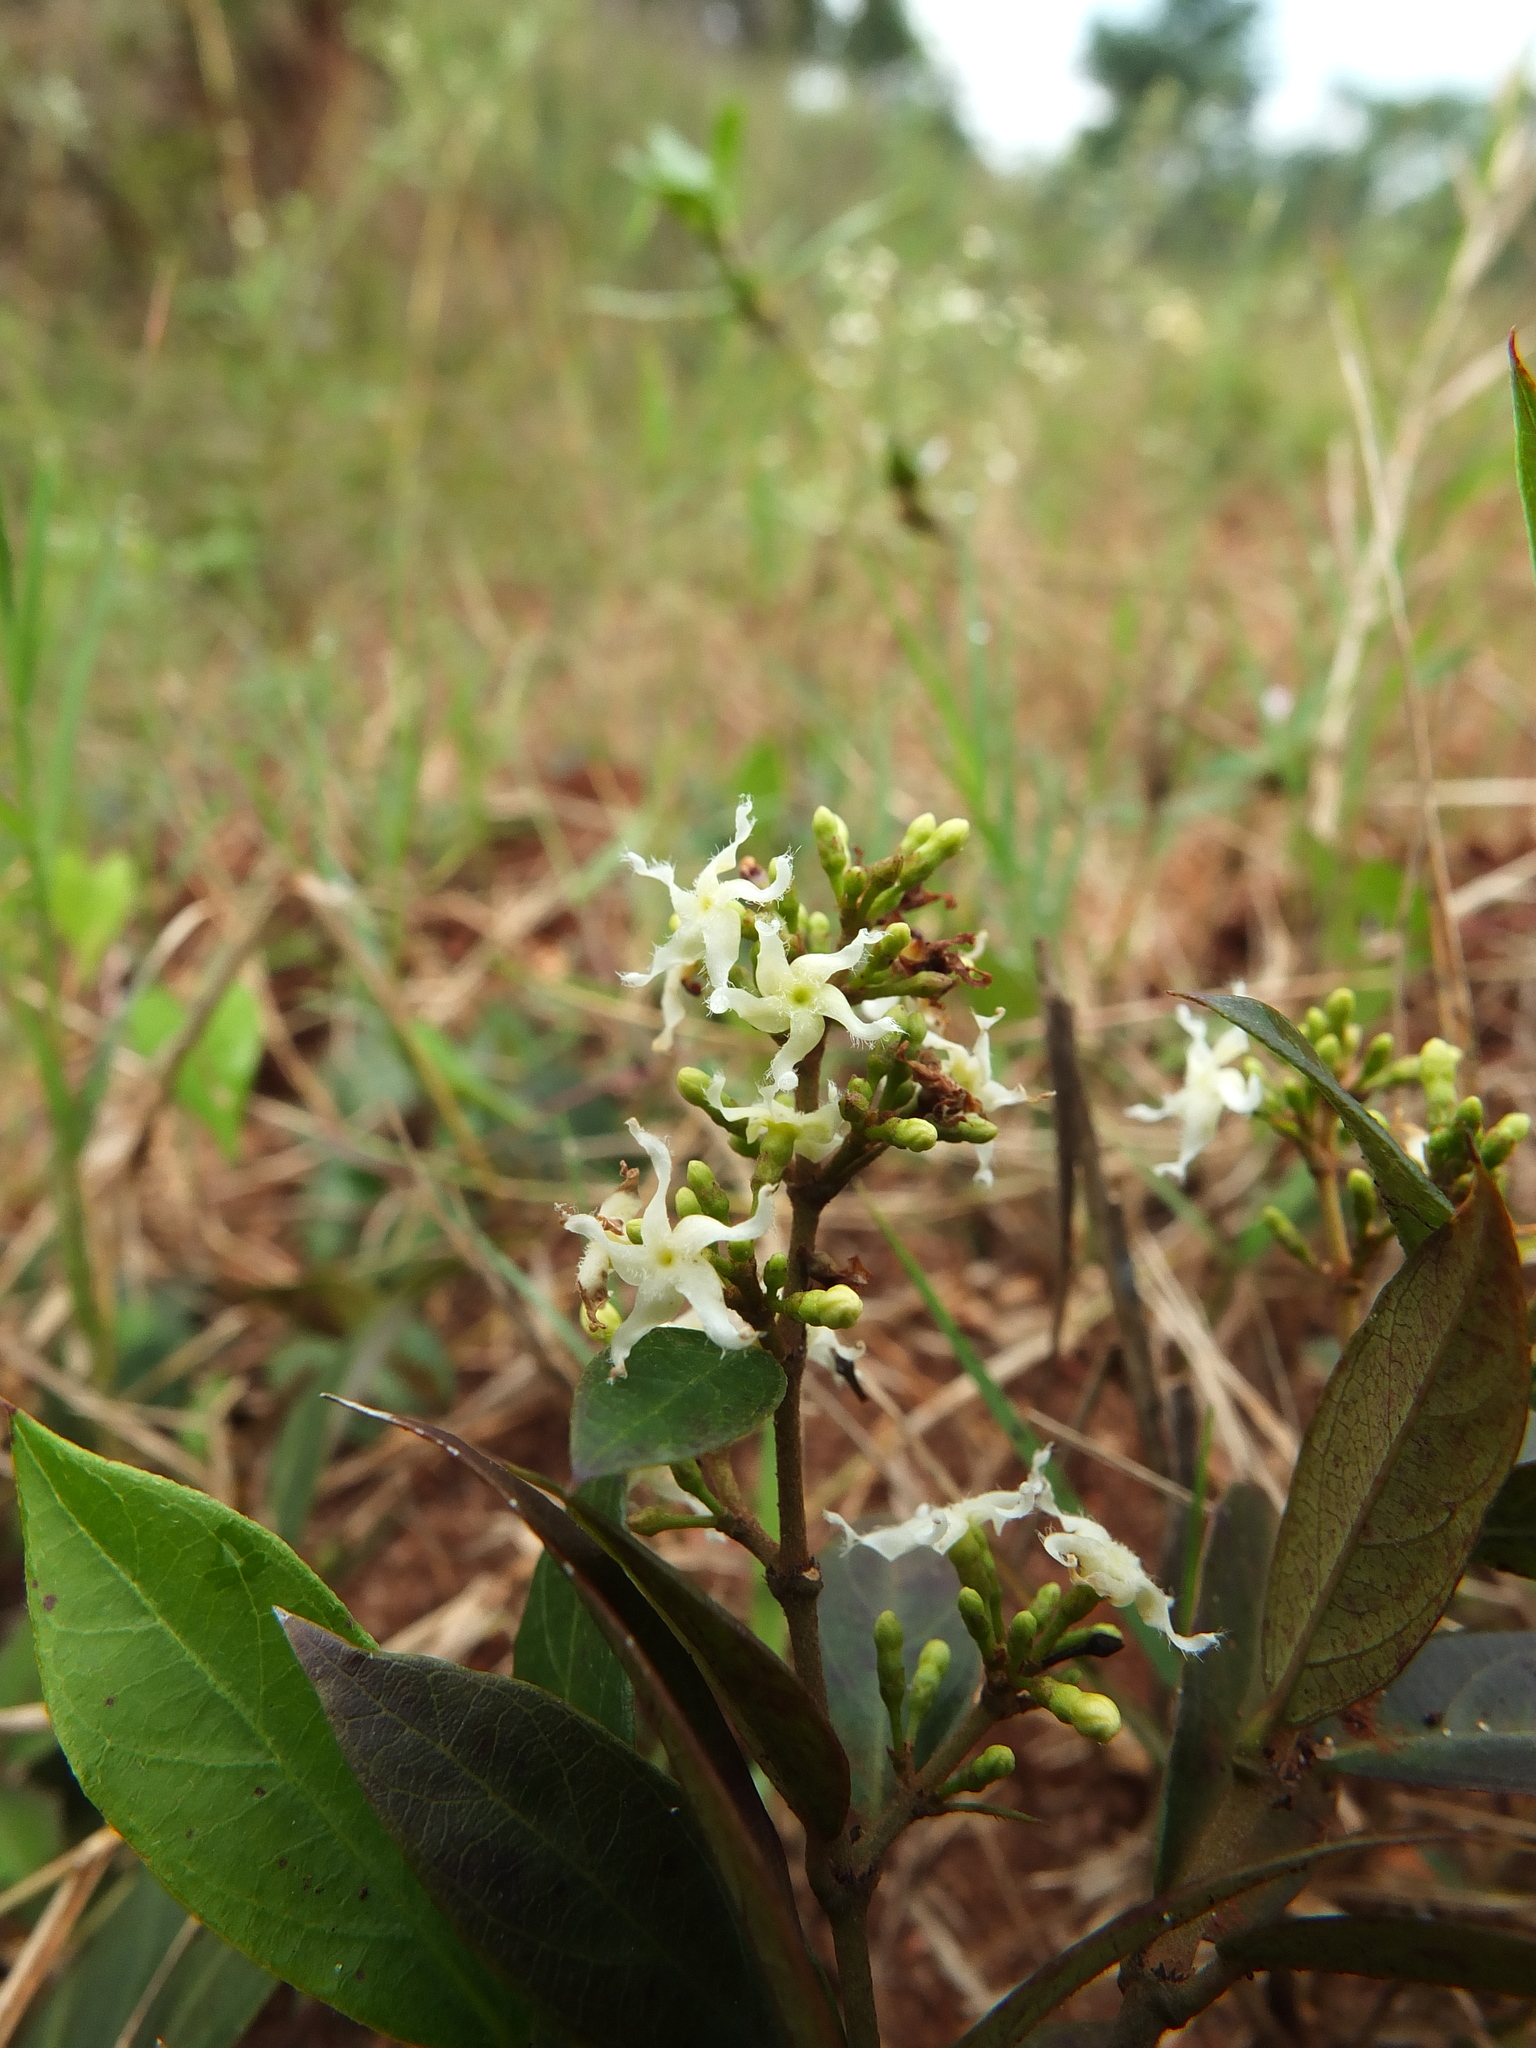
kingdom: Plantae
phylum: Tracheophyta
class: Magnoliopsida
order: Gentianales
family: Apocynaceae
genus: Ichnocarpus
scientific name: Ichnocarpus frutescens
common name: Ichnocarpus
